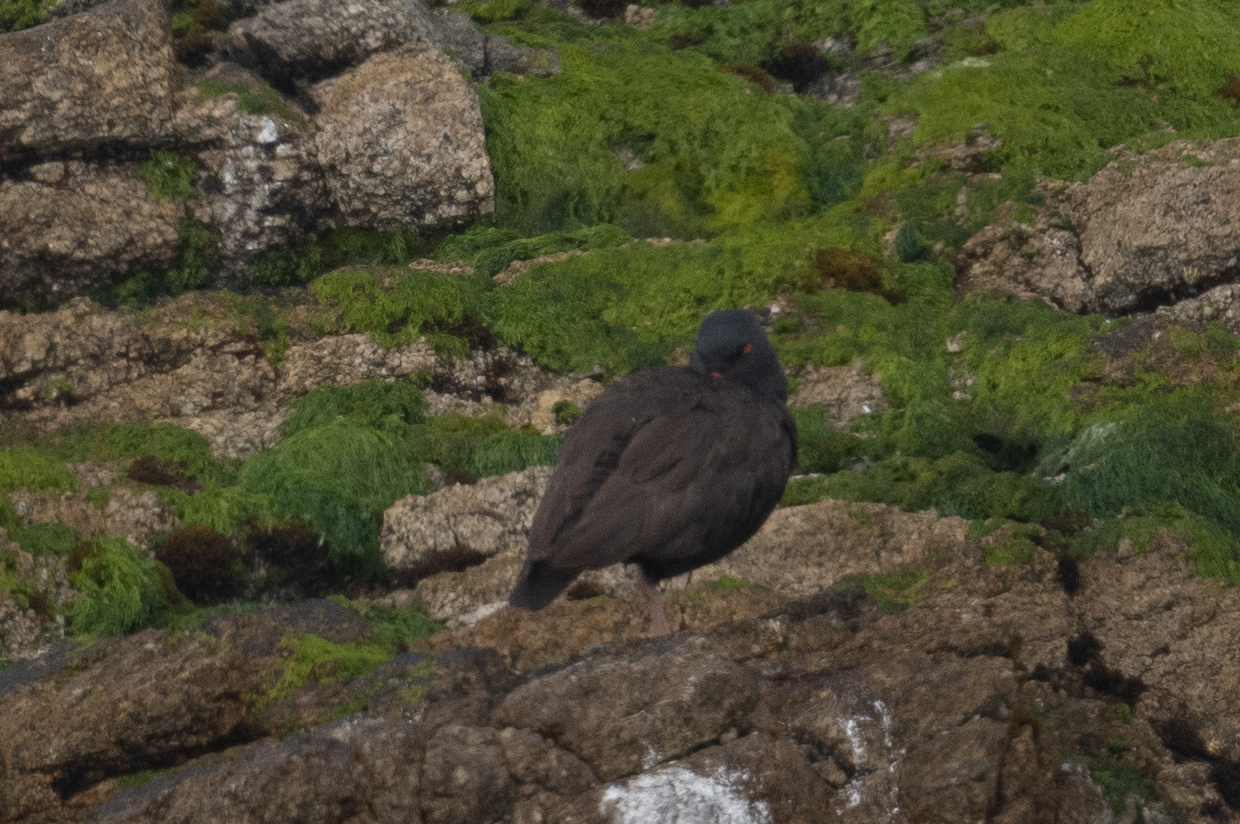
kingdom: Animalia
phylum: Chordata
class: Aves
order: Charadriiformes
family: Haematopodidae
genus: Haematopus
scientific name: Haematopus bachmani
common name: Black oystercatcher
